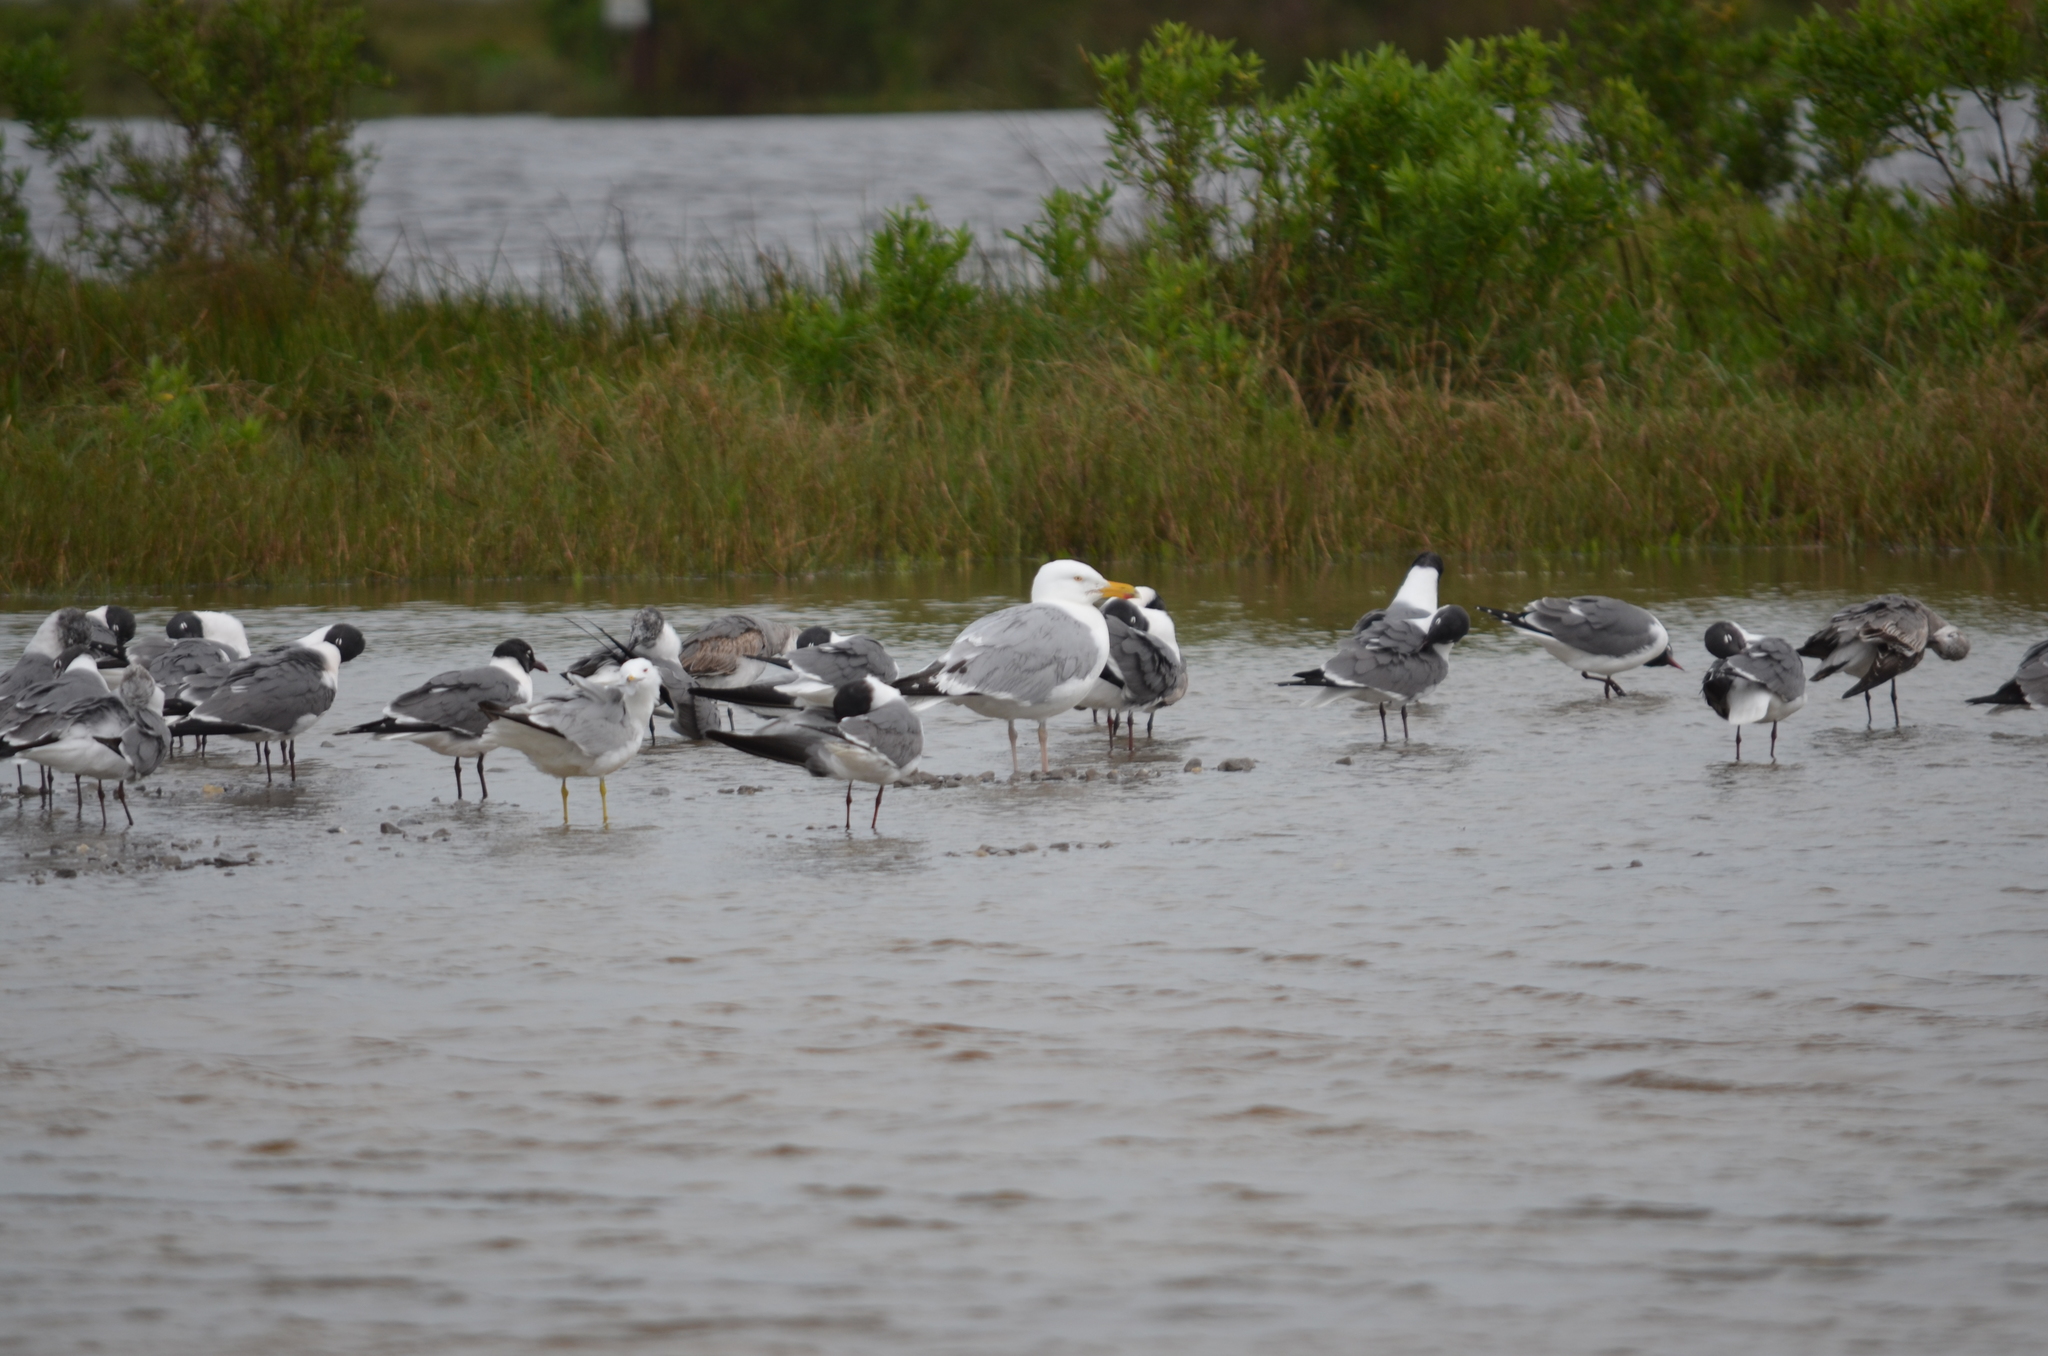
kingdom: Animalia
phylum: Chordata
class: Aves
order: Charadriiformes
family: Laridae
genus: Larus
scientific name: Larus argentatus
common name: Herring gull
